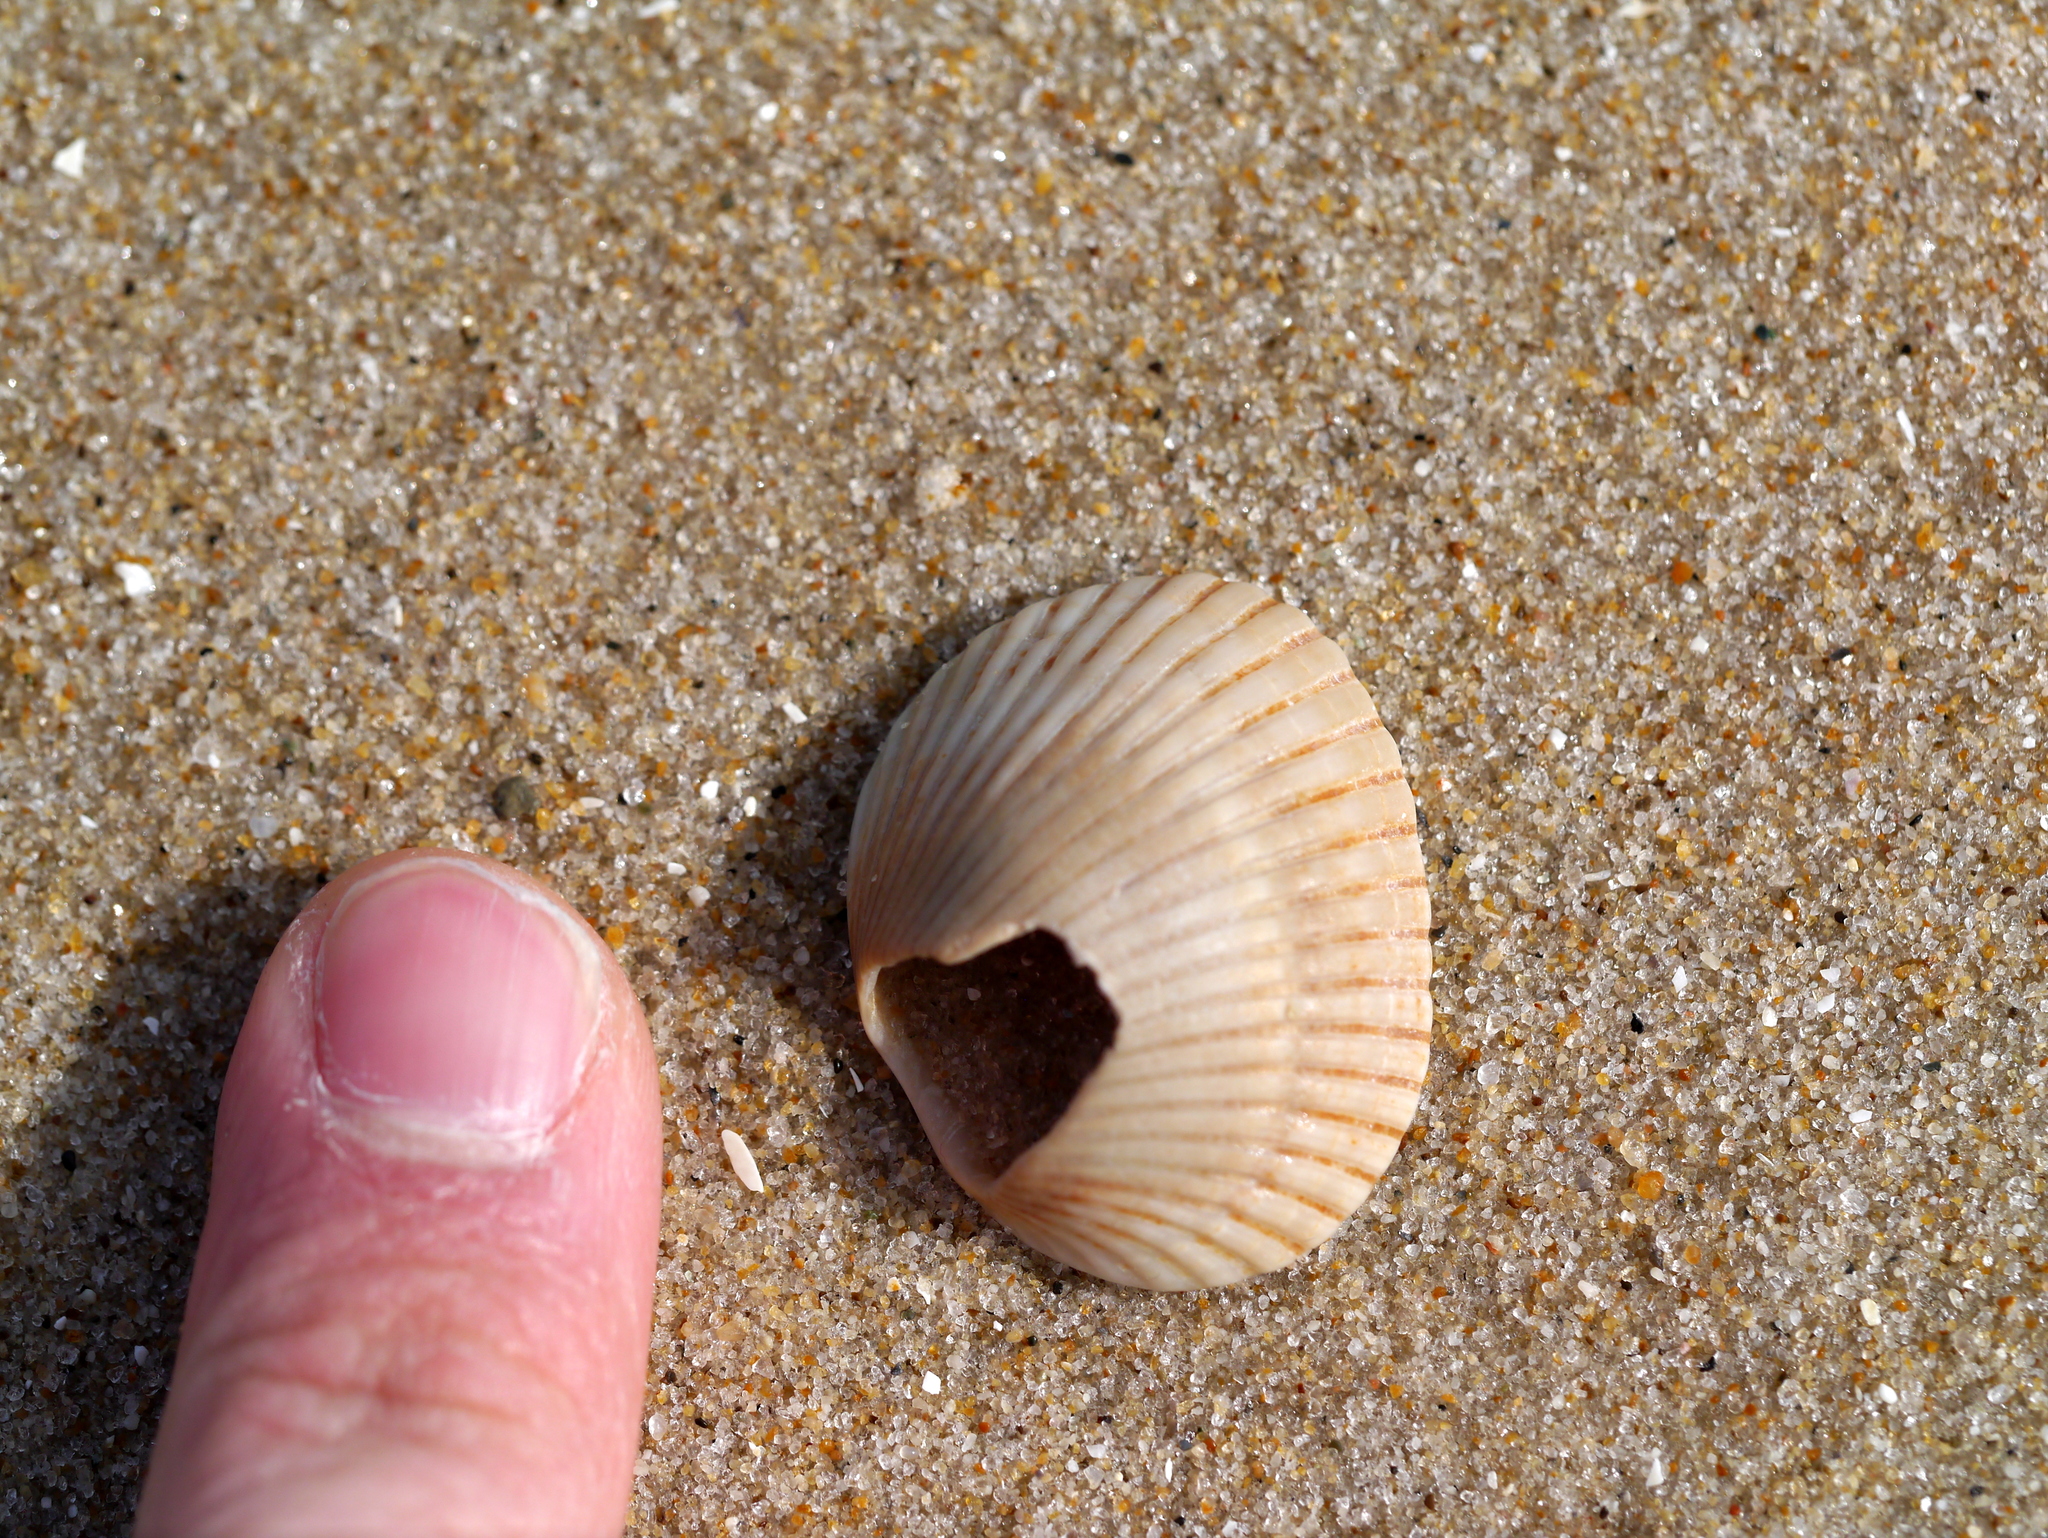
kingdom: Animalia
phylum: Mollusca
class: Bivalvia
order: Arcida
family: Arcidae
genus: Lunarca
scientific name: Lunarca ovalis
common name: Blood ark
